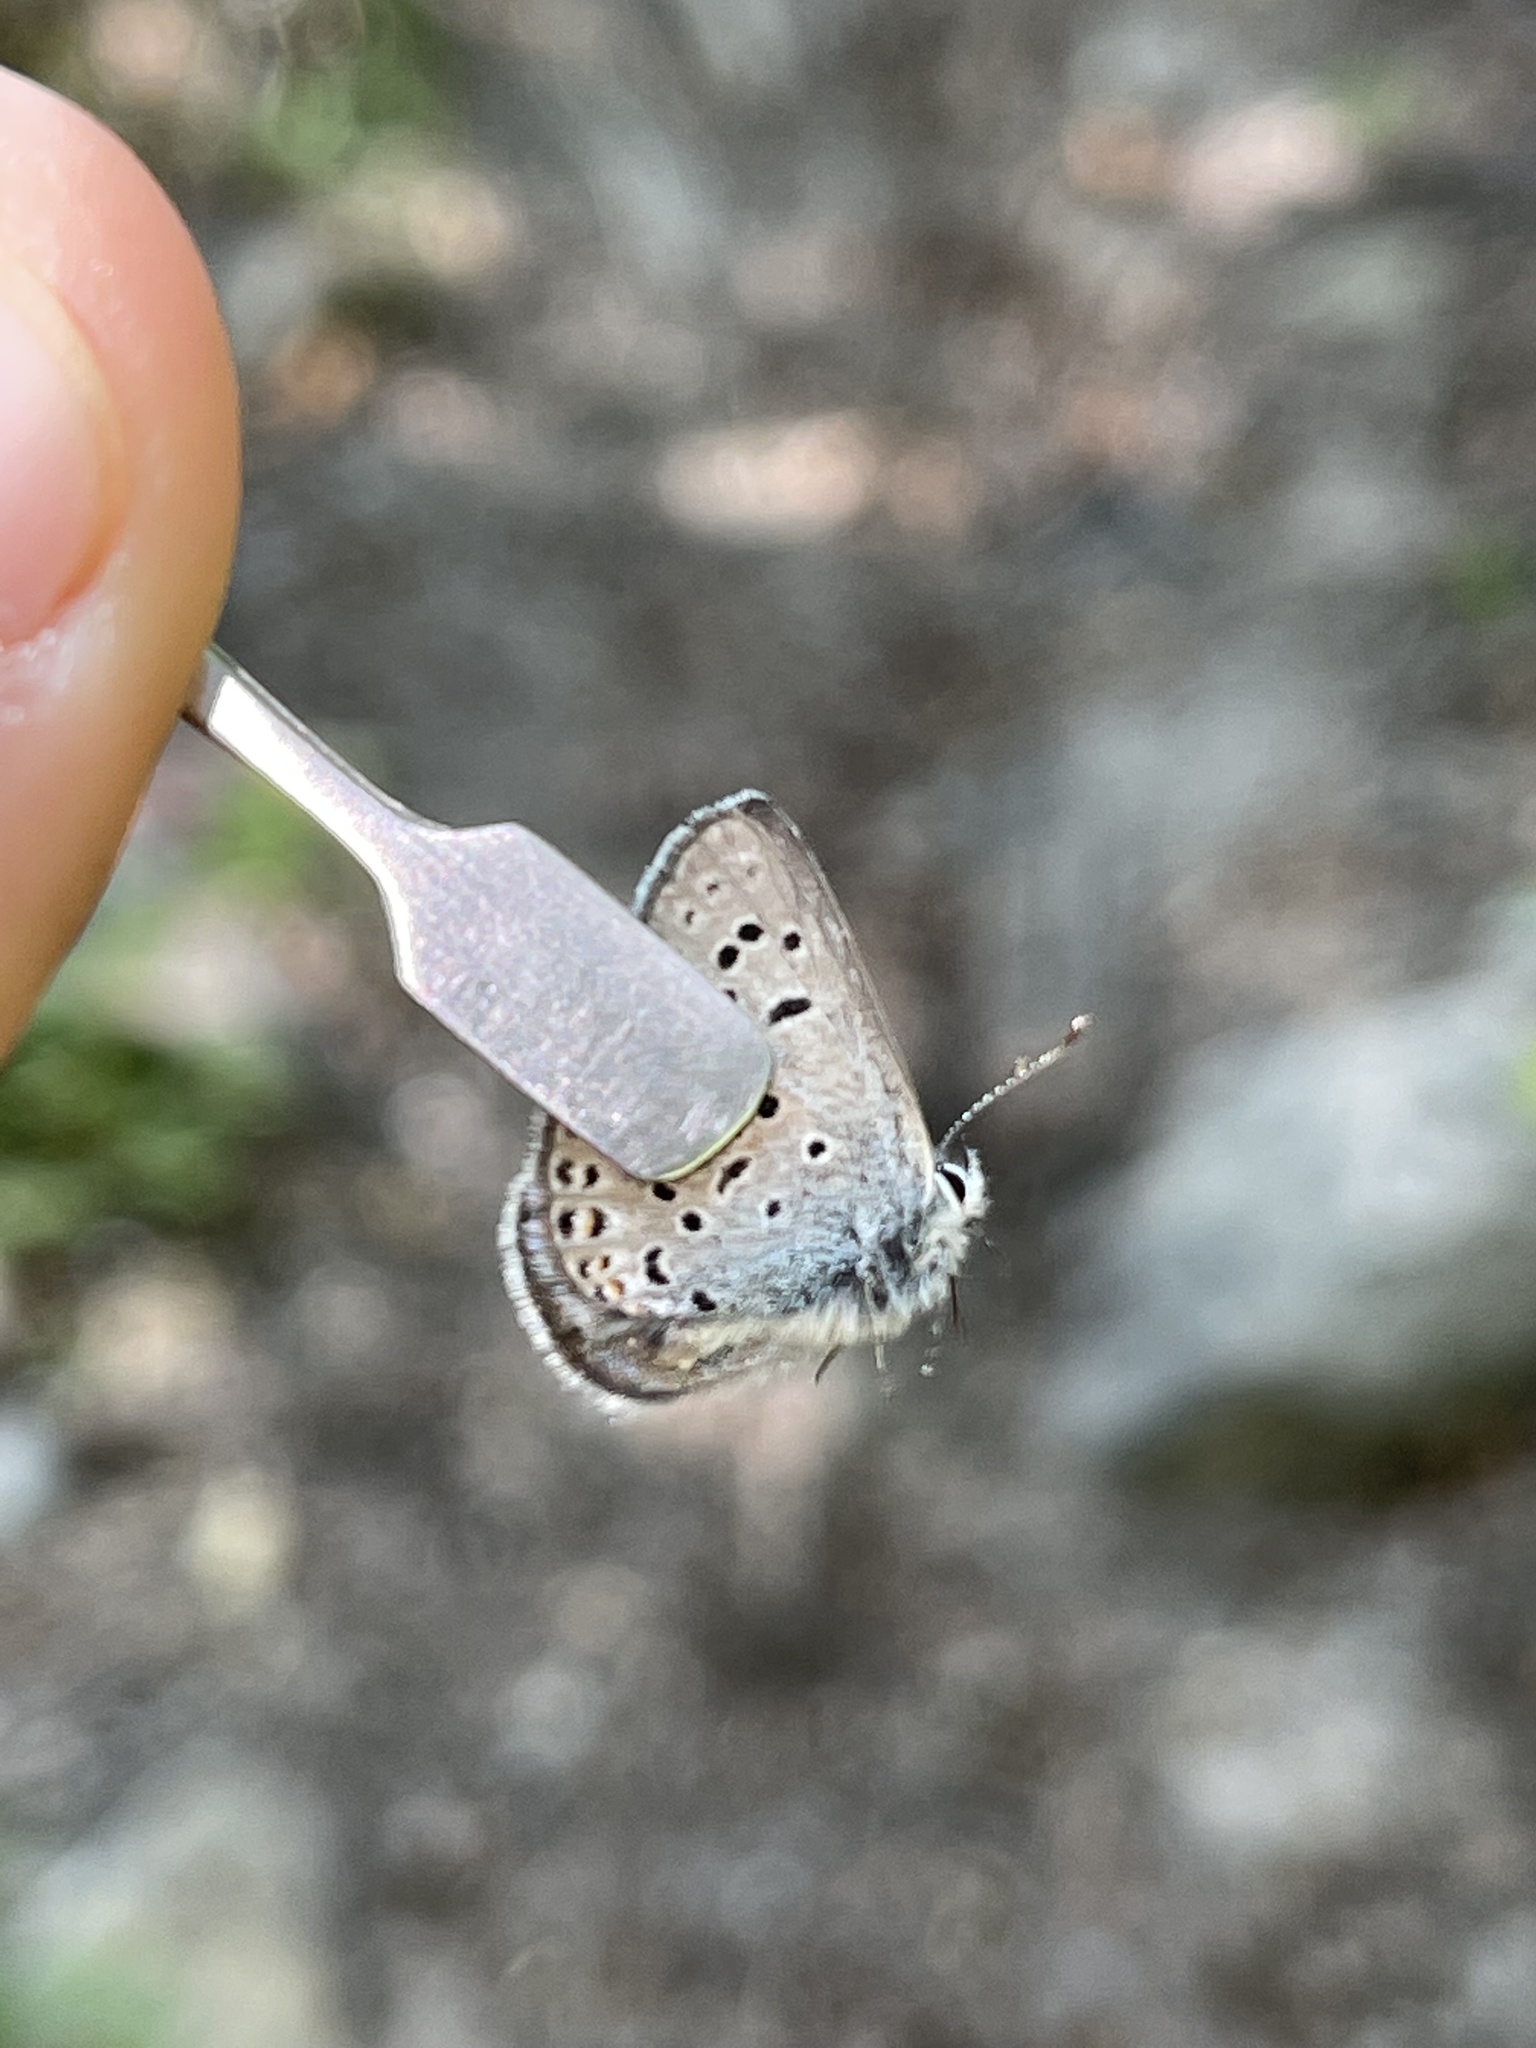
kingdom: Animalia
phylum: Arthropoda
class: Insecta
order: Lepidoptera
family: Lycaenidae
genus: Icaricia
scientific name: Icaricia saepiolus
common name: Greenish blue
